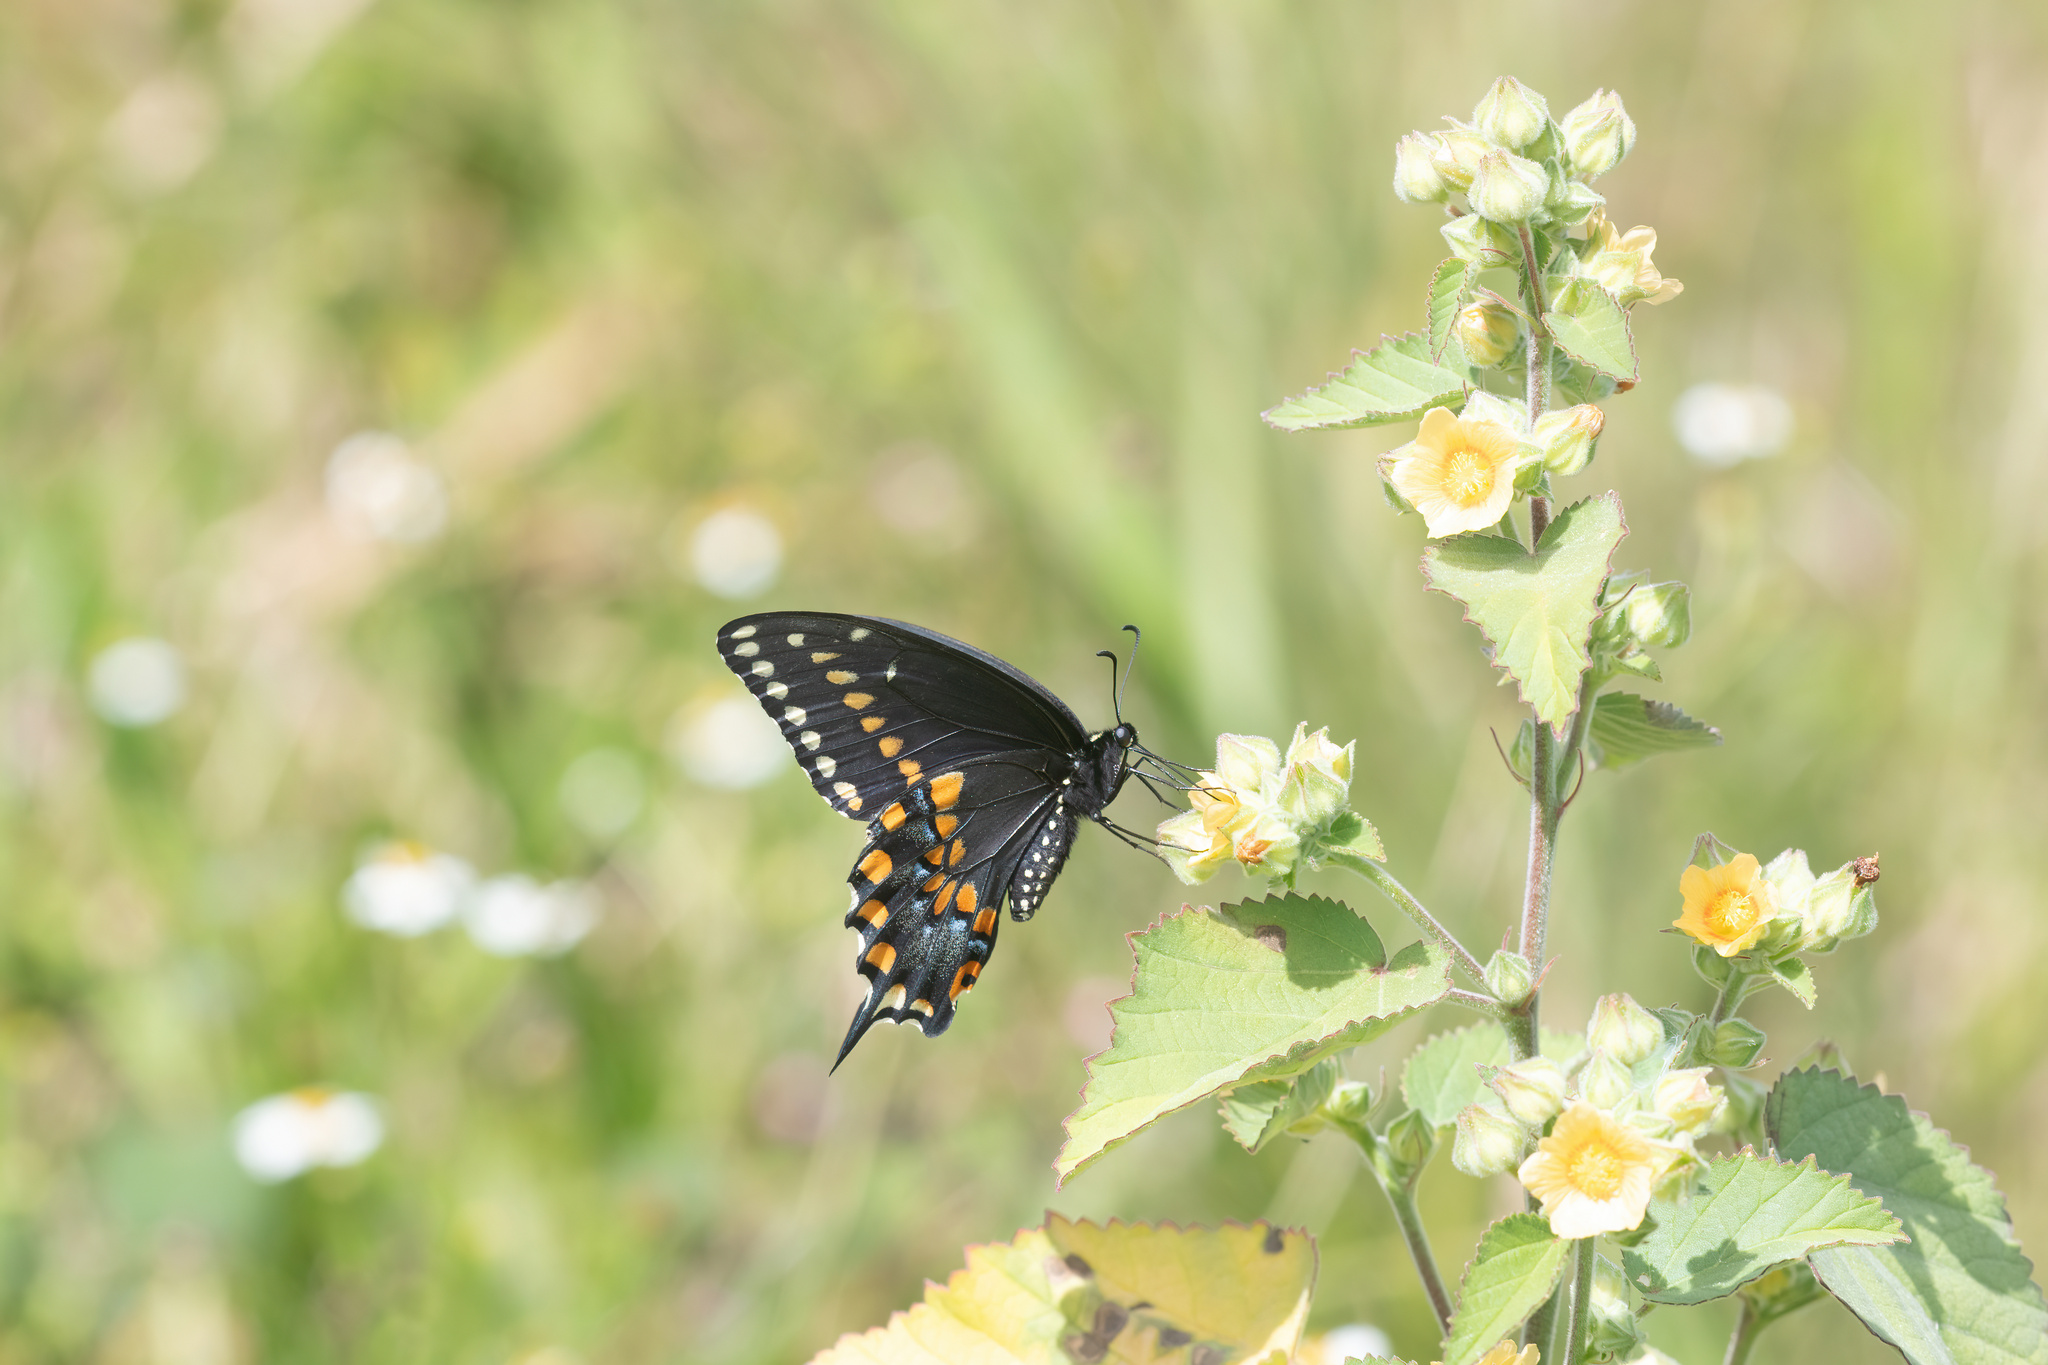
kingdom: Animalia
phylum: Arthropoda
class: Insecta
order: Lepidoptera
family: Papilionidae
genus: Papilio
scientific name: Papilio polyxenes
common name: Black swallowtail
